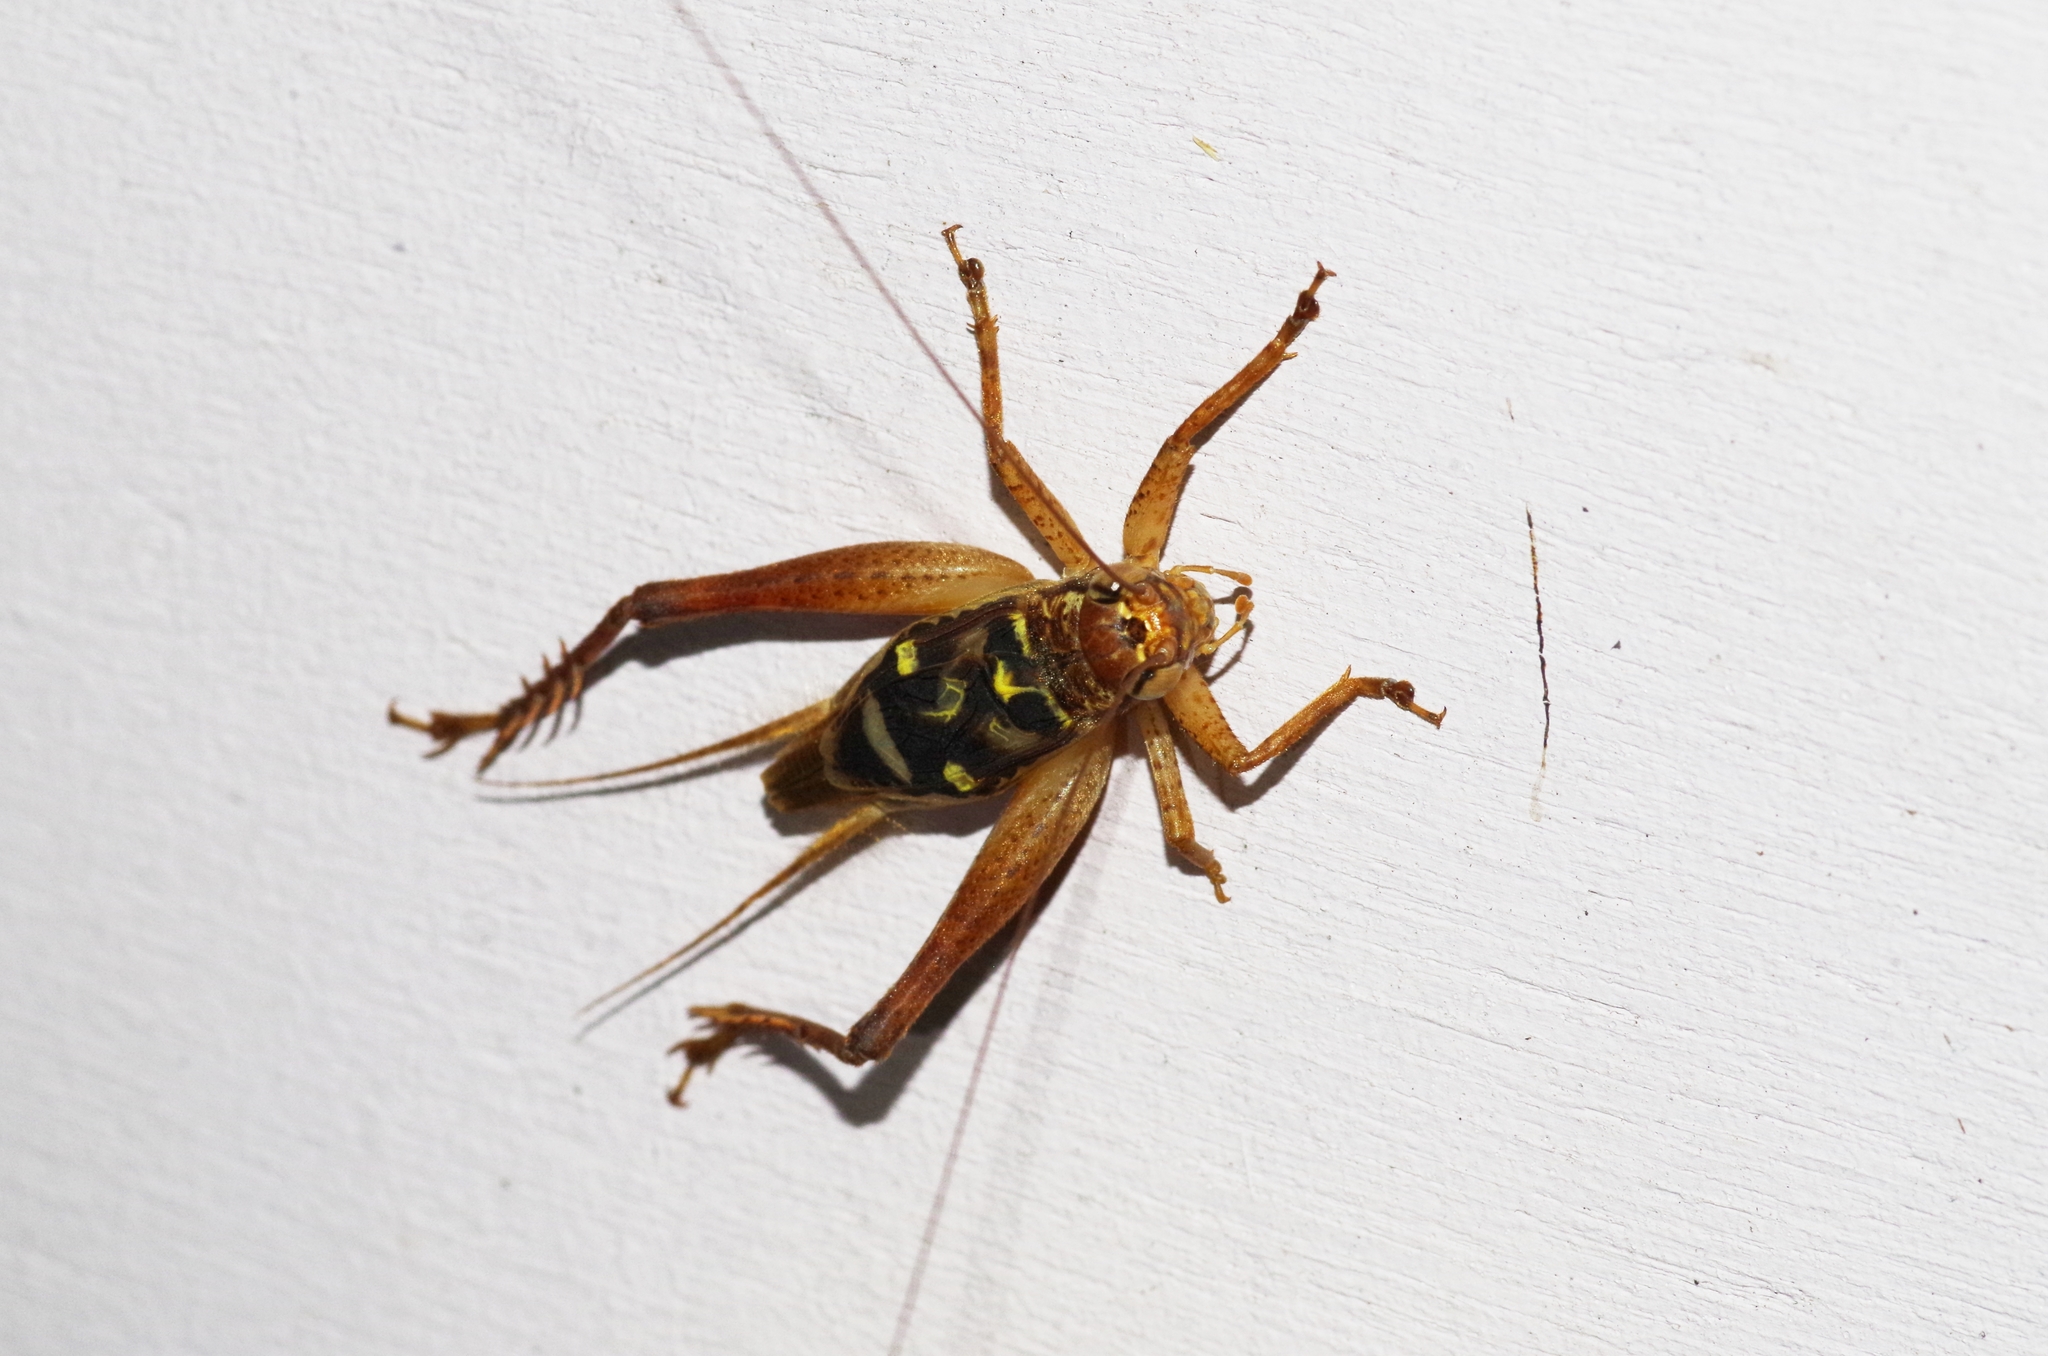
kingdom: Animalia
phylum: Arthropoda
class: Insecta
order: Orthoptera
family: Gryllidae
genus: Cardiodactylus
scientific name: Cardiodactylus guttulus
